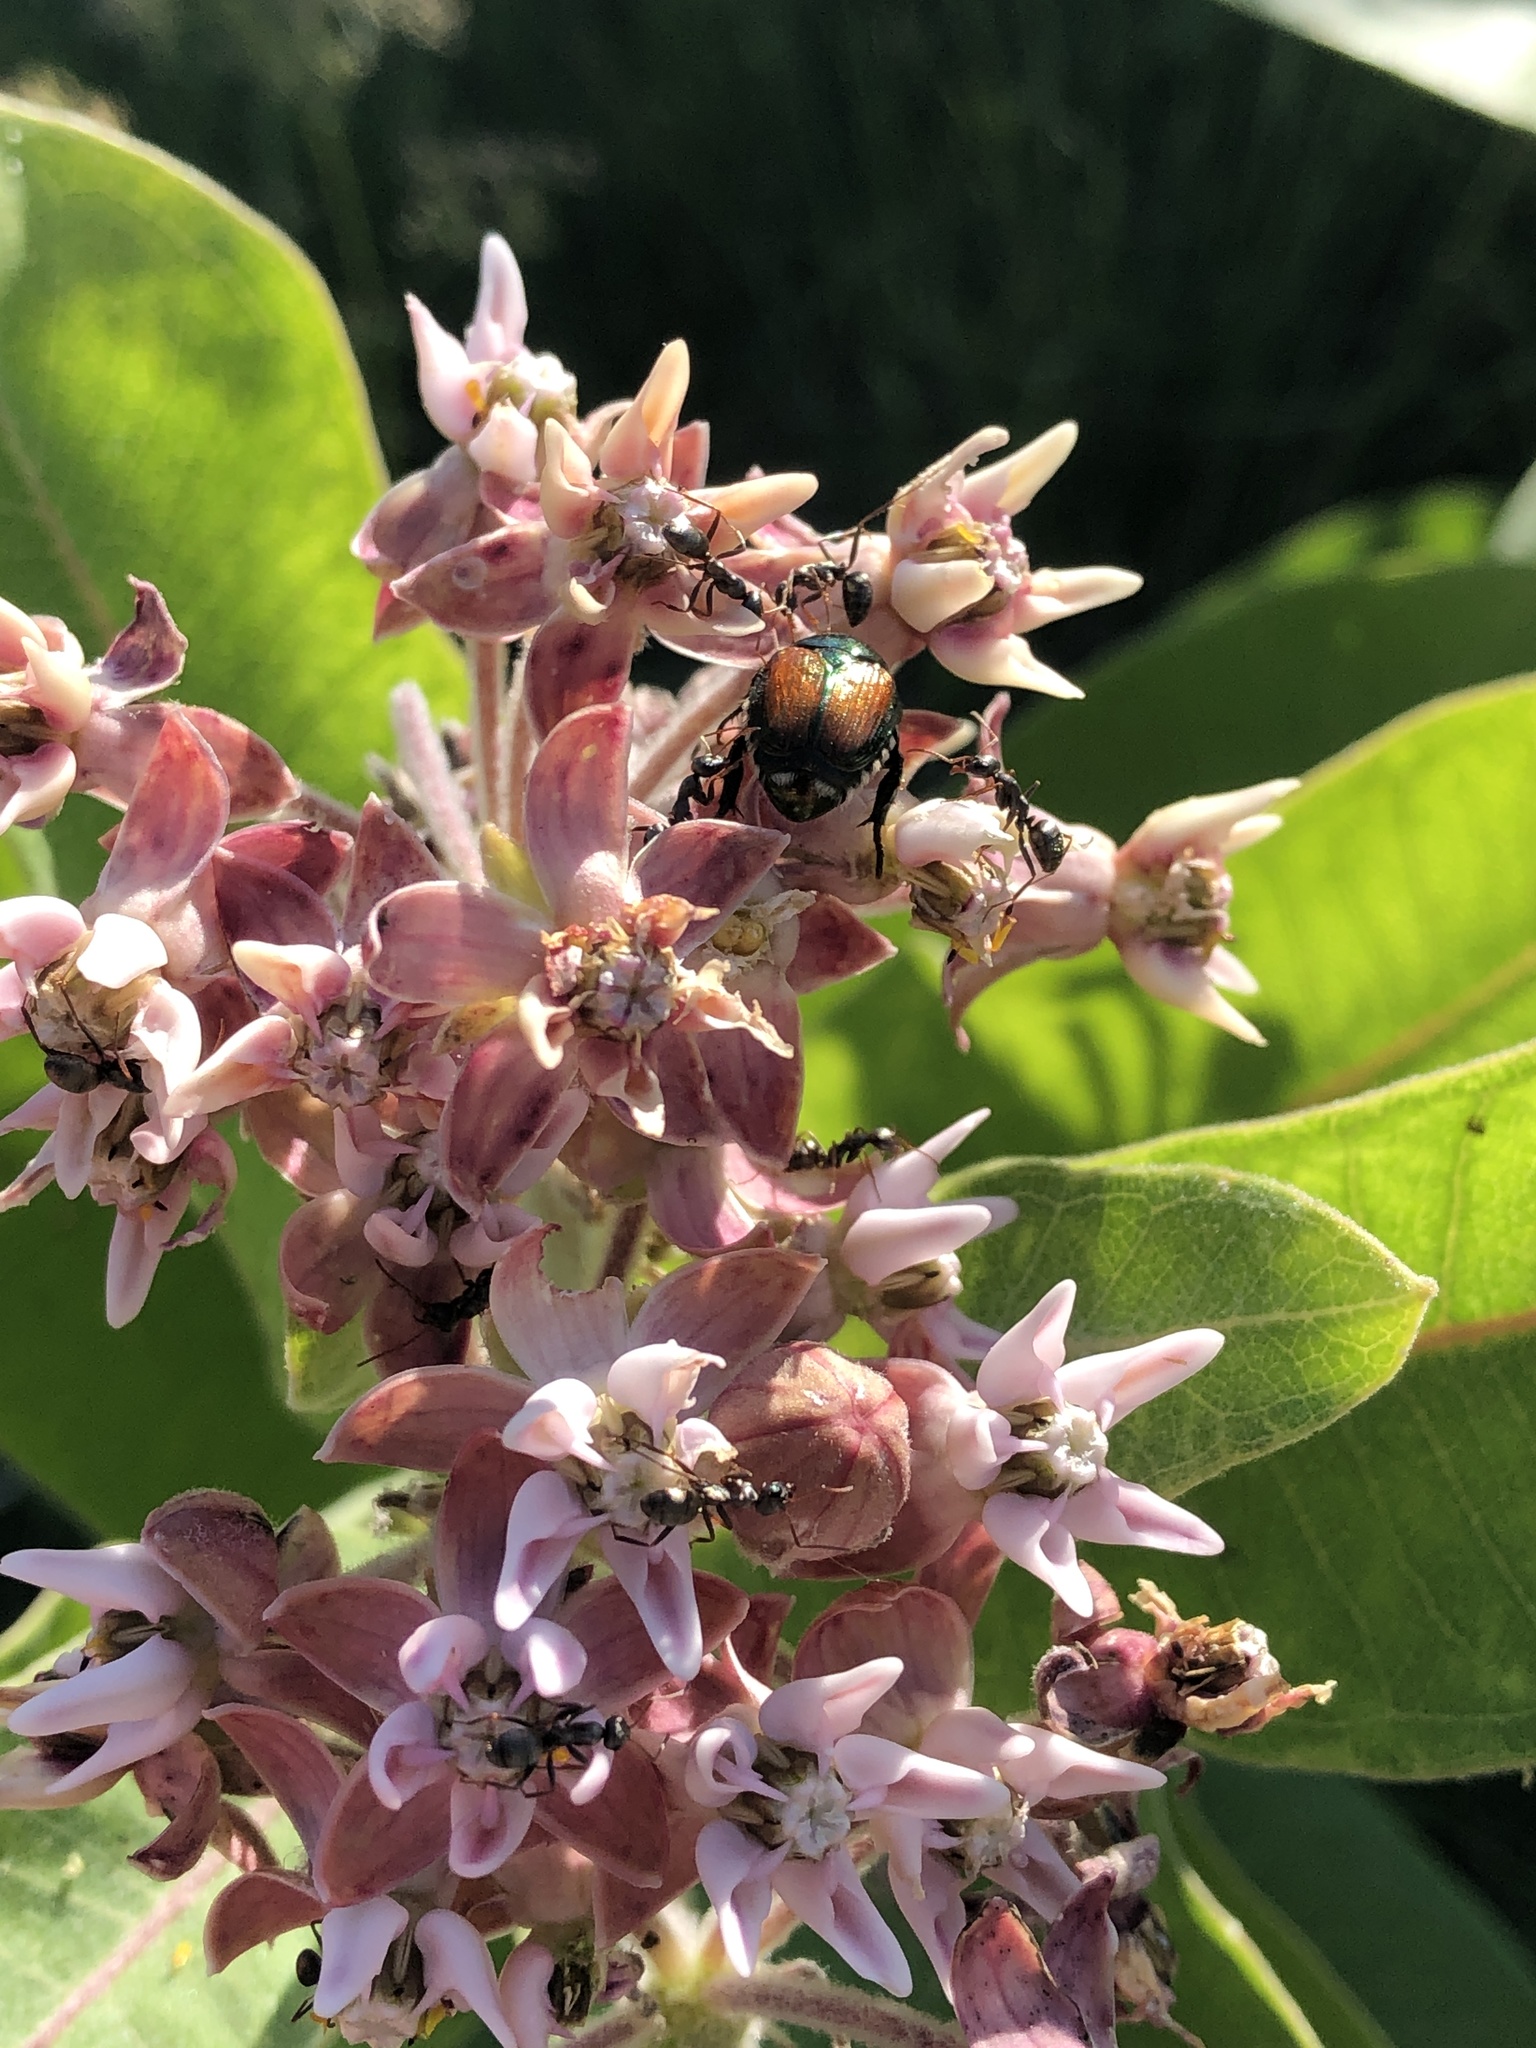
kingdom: Plantae
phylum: Tracheophyta
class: Magnoliopsida
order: Gentianales
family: Apocynaceae
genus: Asclepias
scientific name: Asclepias speciosa
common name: Showy milkweed
